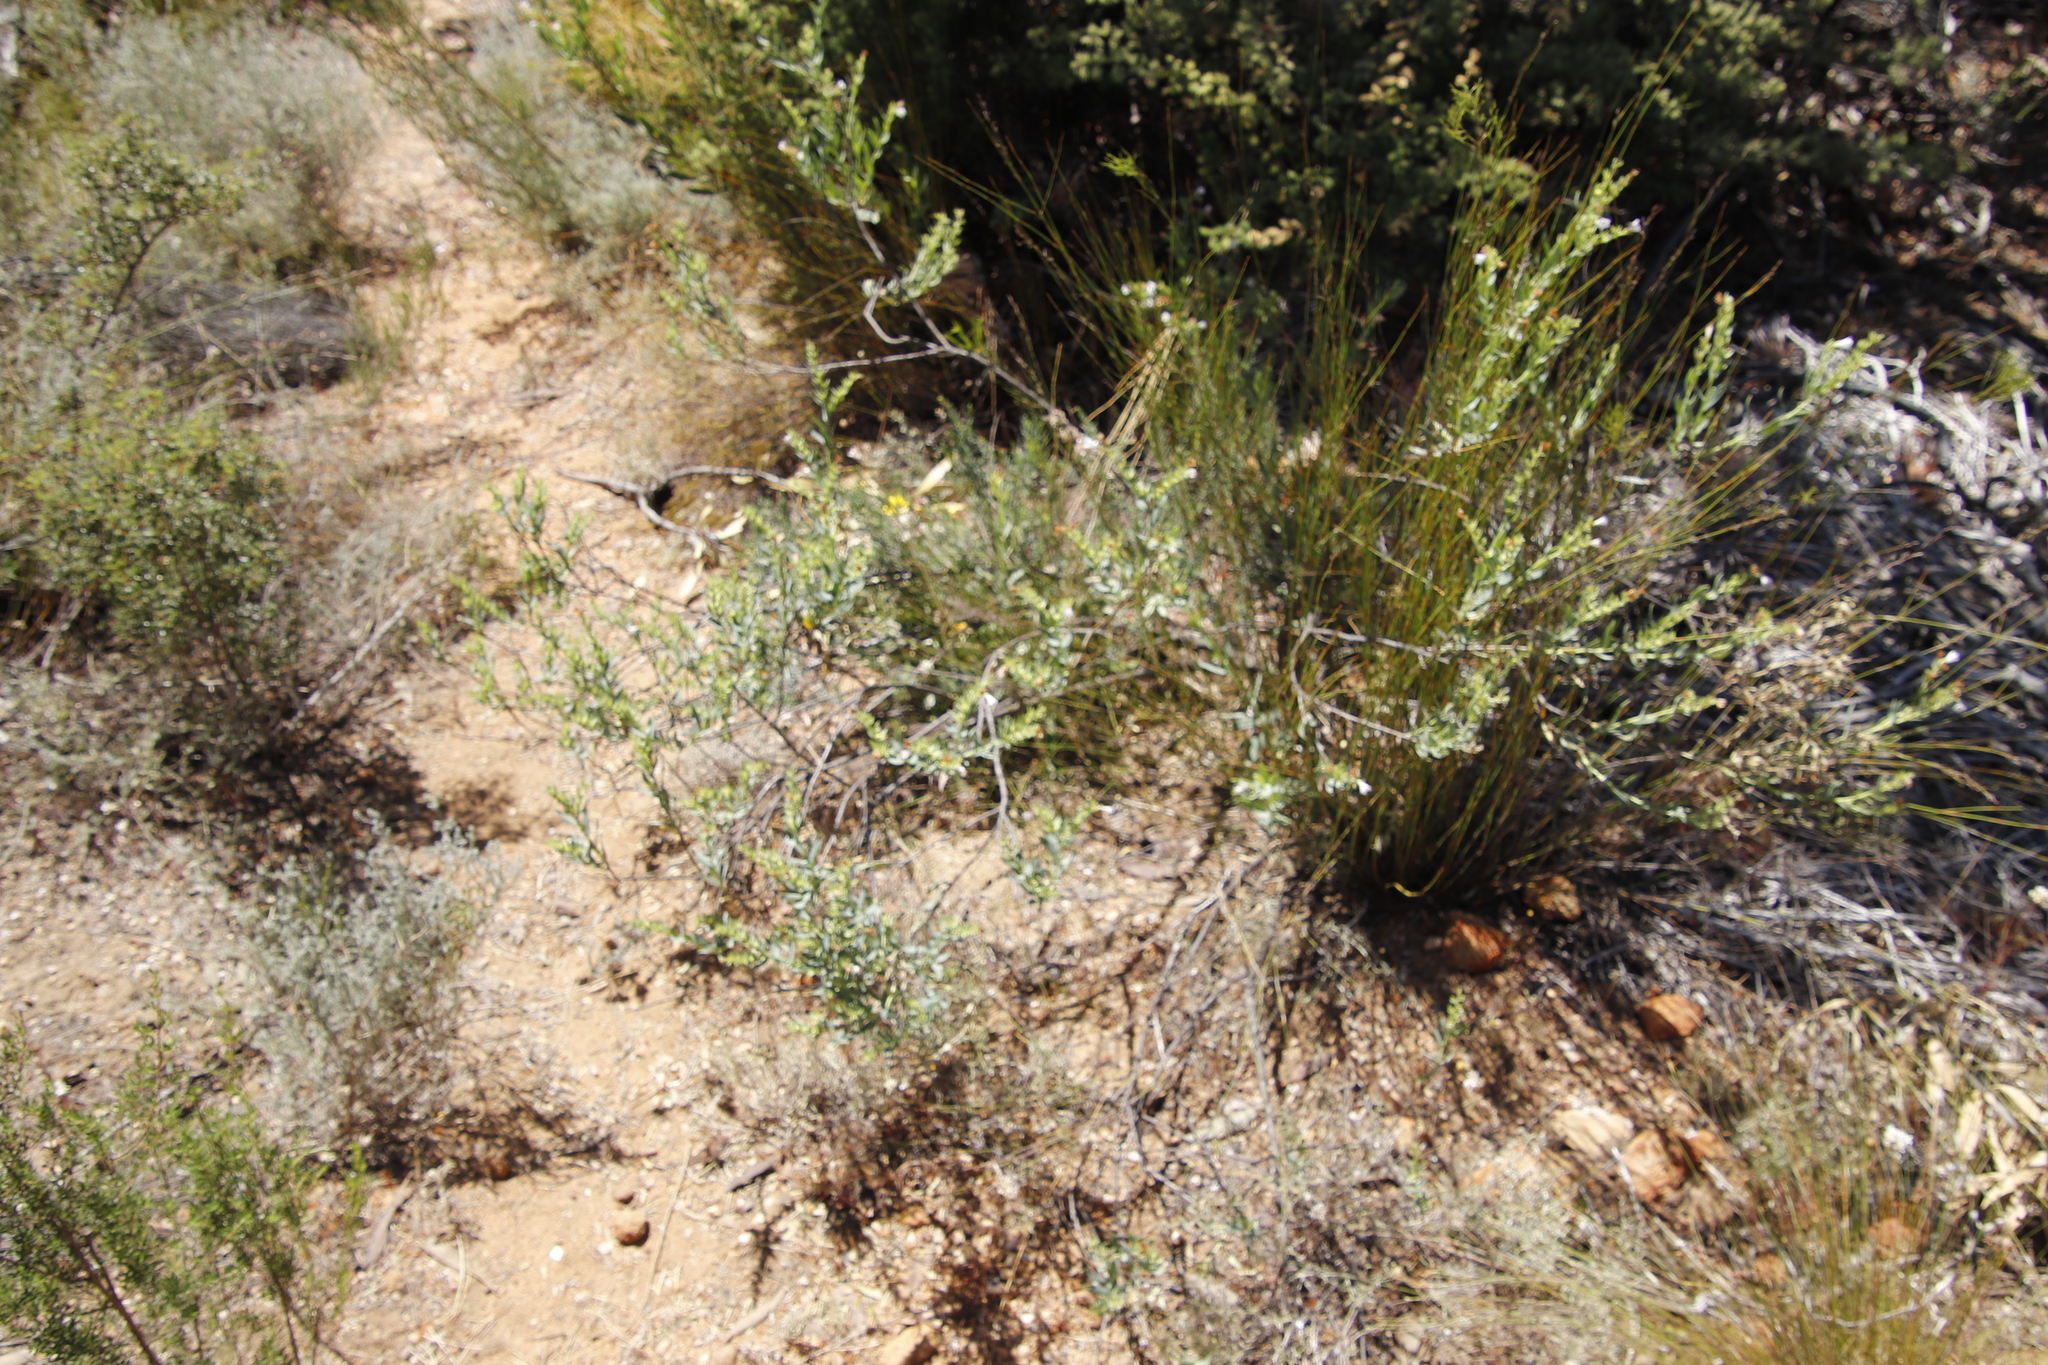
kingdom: Plantae
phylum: Tracheophyta
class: Magnoliopsida
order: Boraginales
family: Boraginaceae
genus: Lobostemon
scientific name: Lobostemon glaucophyllus
